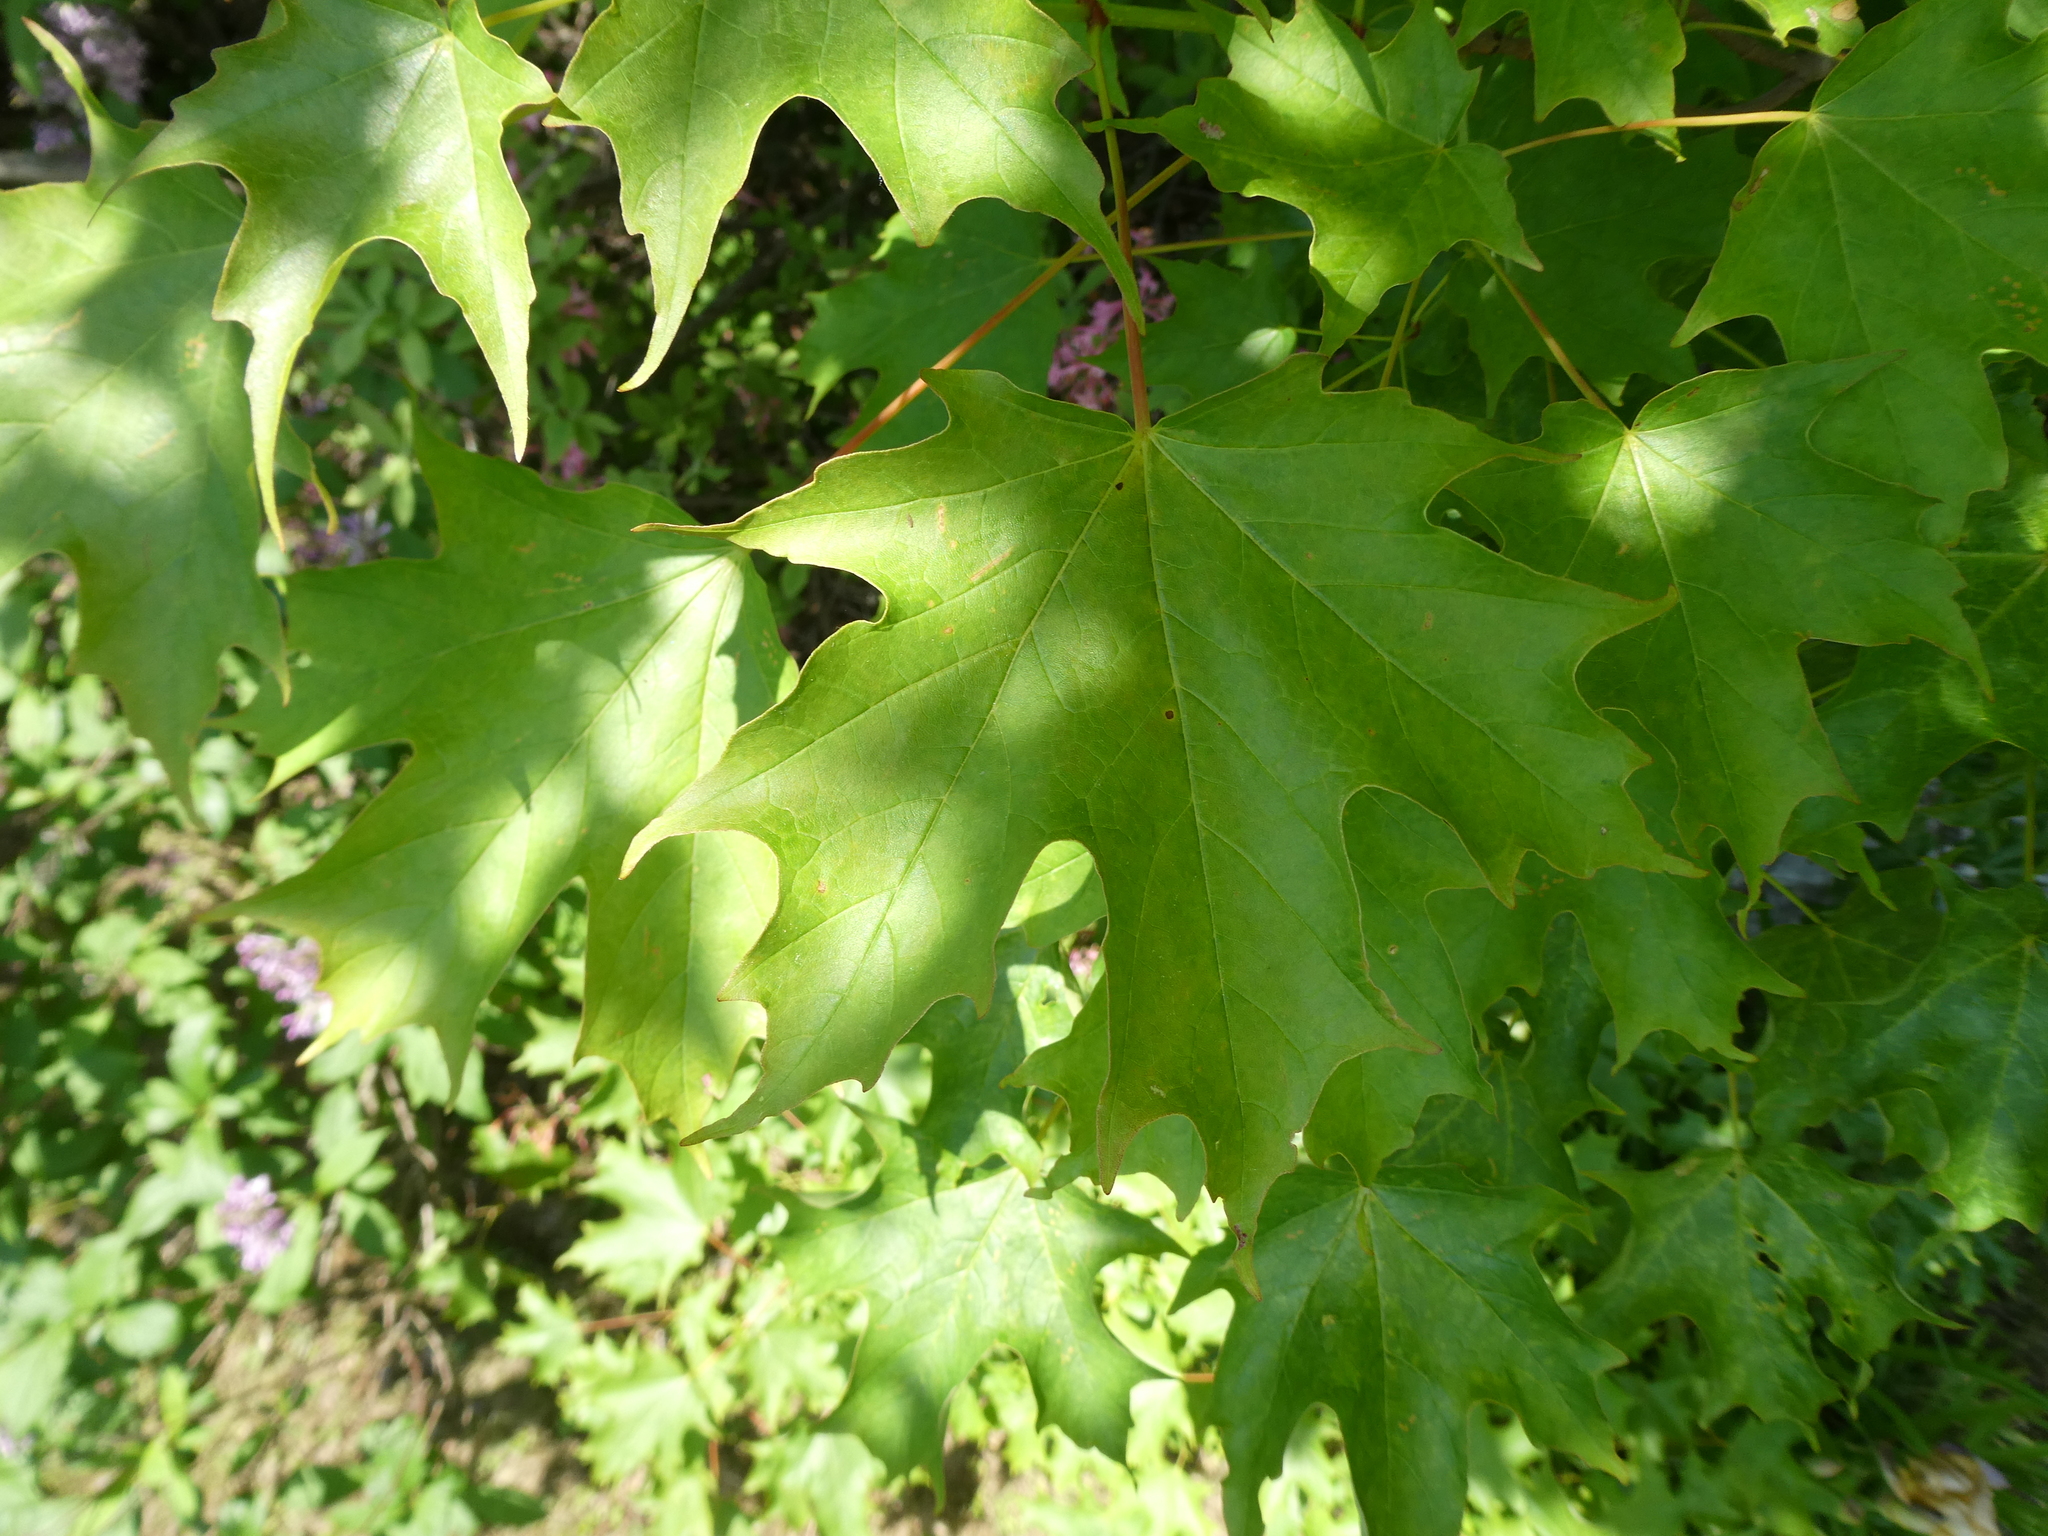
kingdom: Plantae
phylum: Tracheophyta
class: Magnoliopsida
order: Sapindales
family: Sapindaceae
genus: Acer
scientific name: Acer saccharum
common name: Sugar maple
